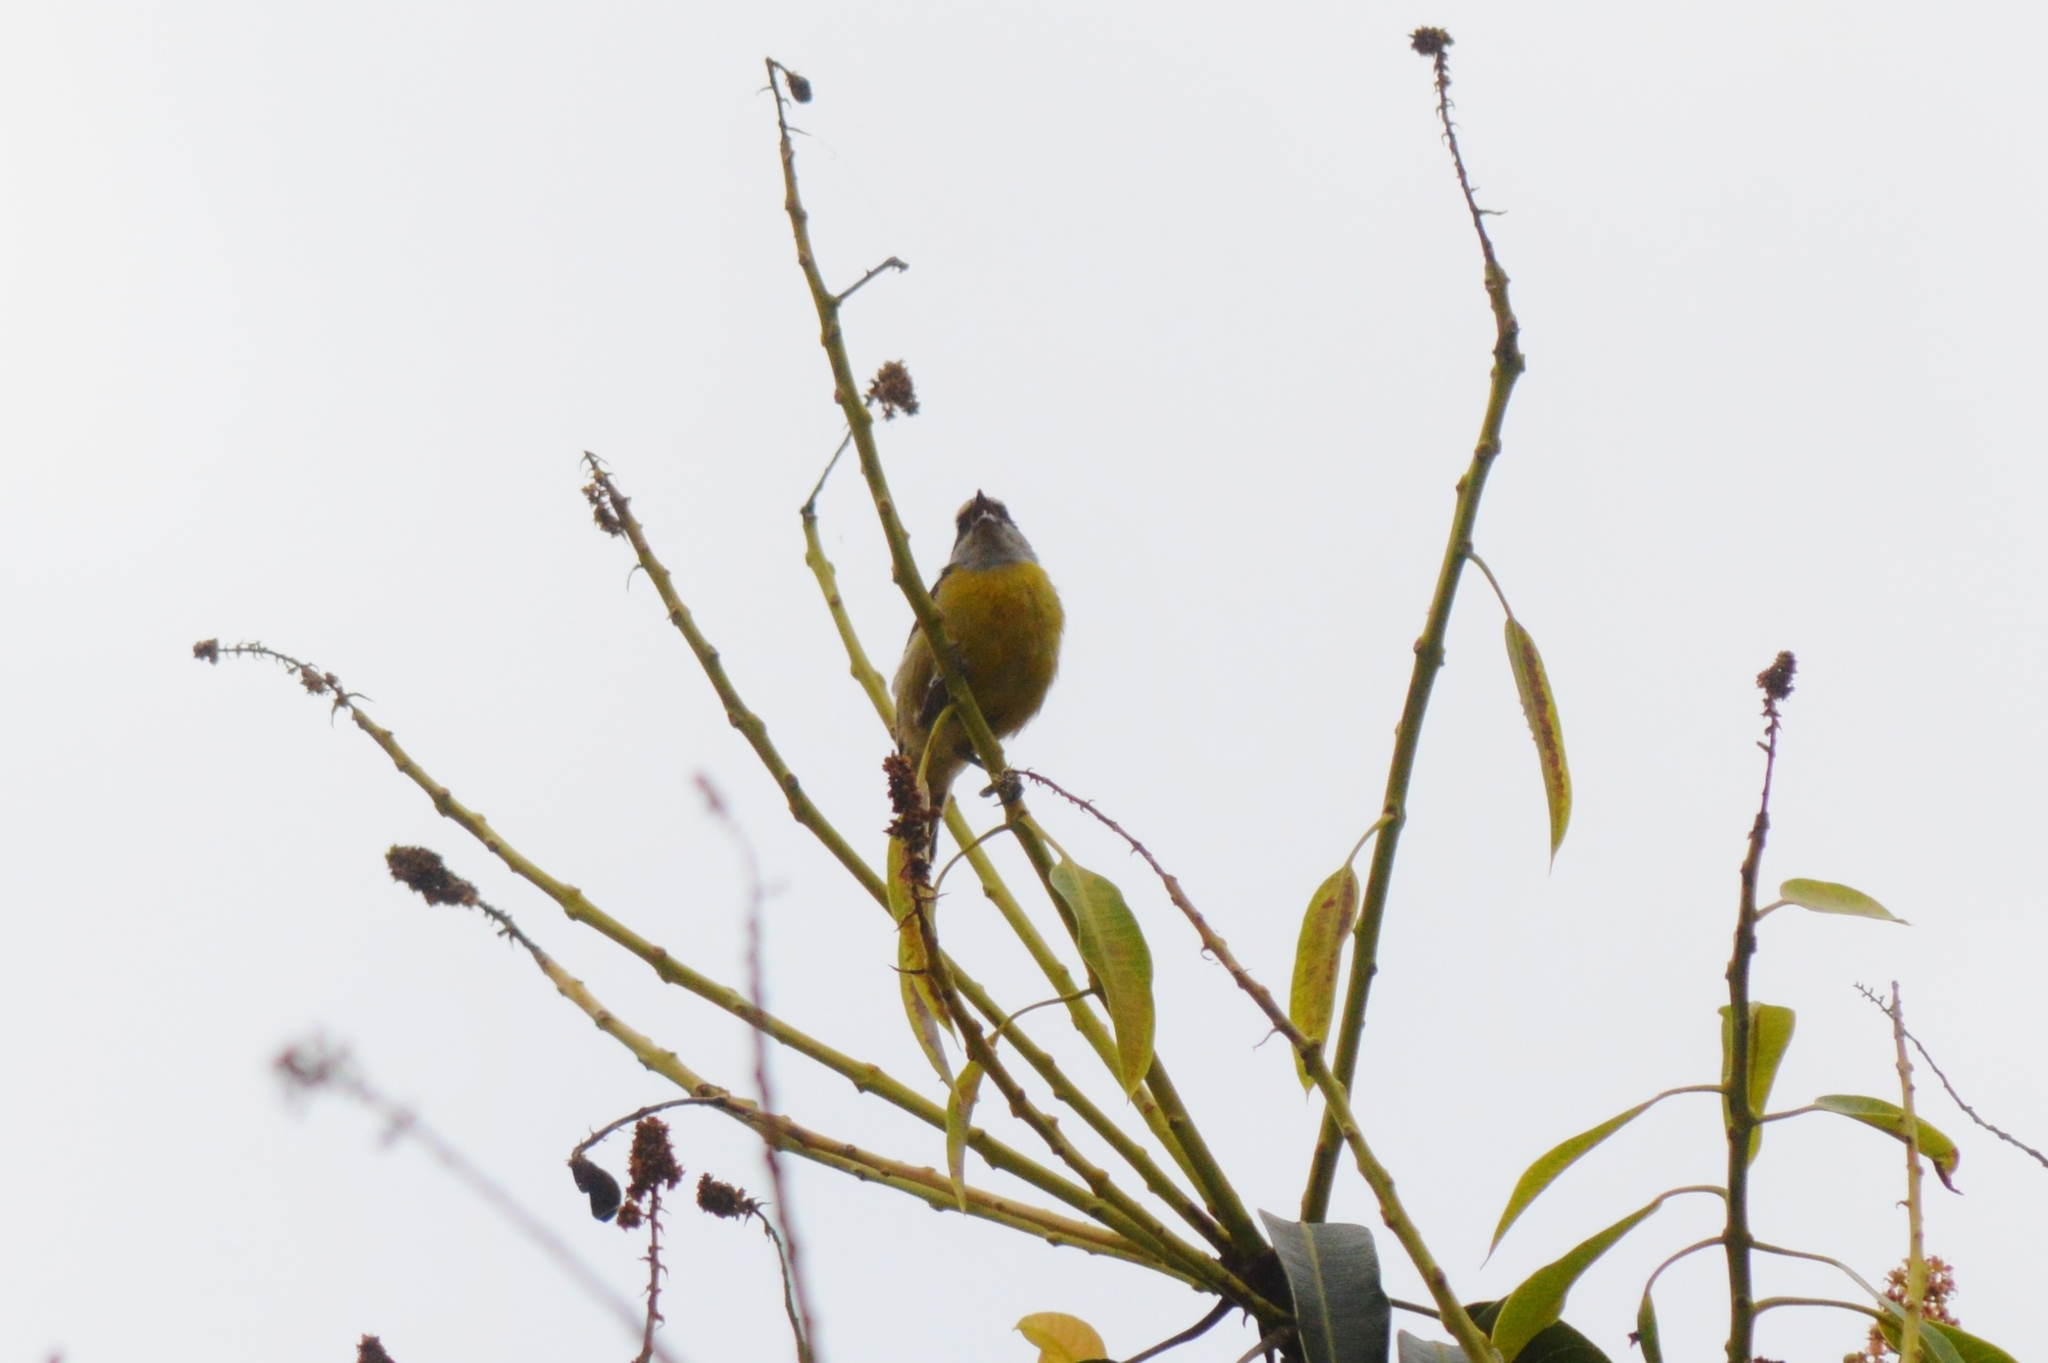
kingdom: Animalia
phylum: Chordata
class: Aves
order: Passeriformes
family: Thraupidae
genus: Coereba
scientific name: Coereba flaveola
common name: Bananaquit
